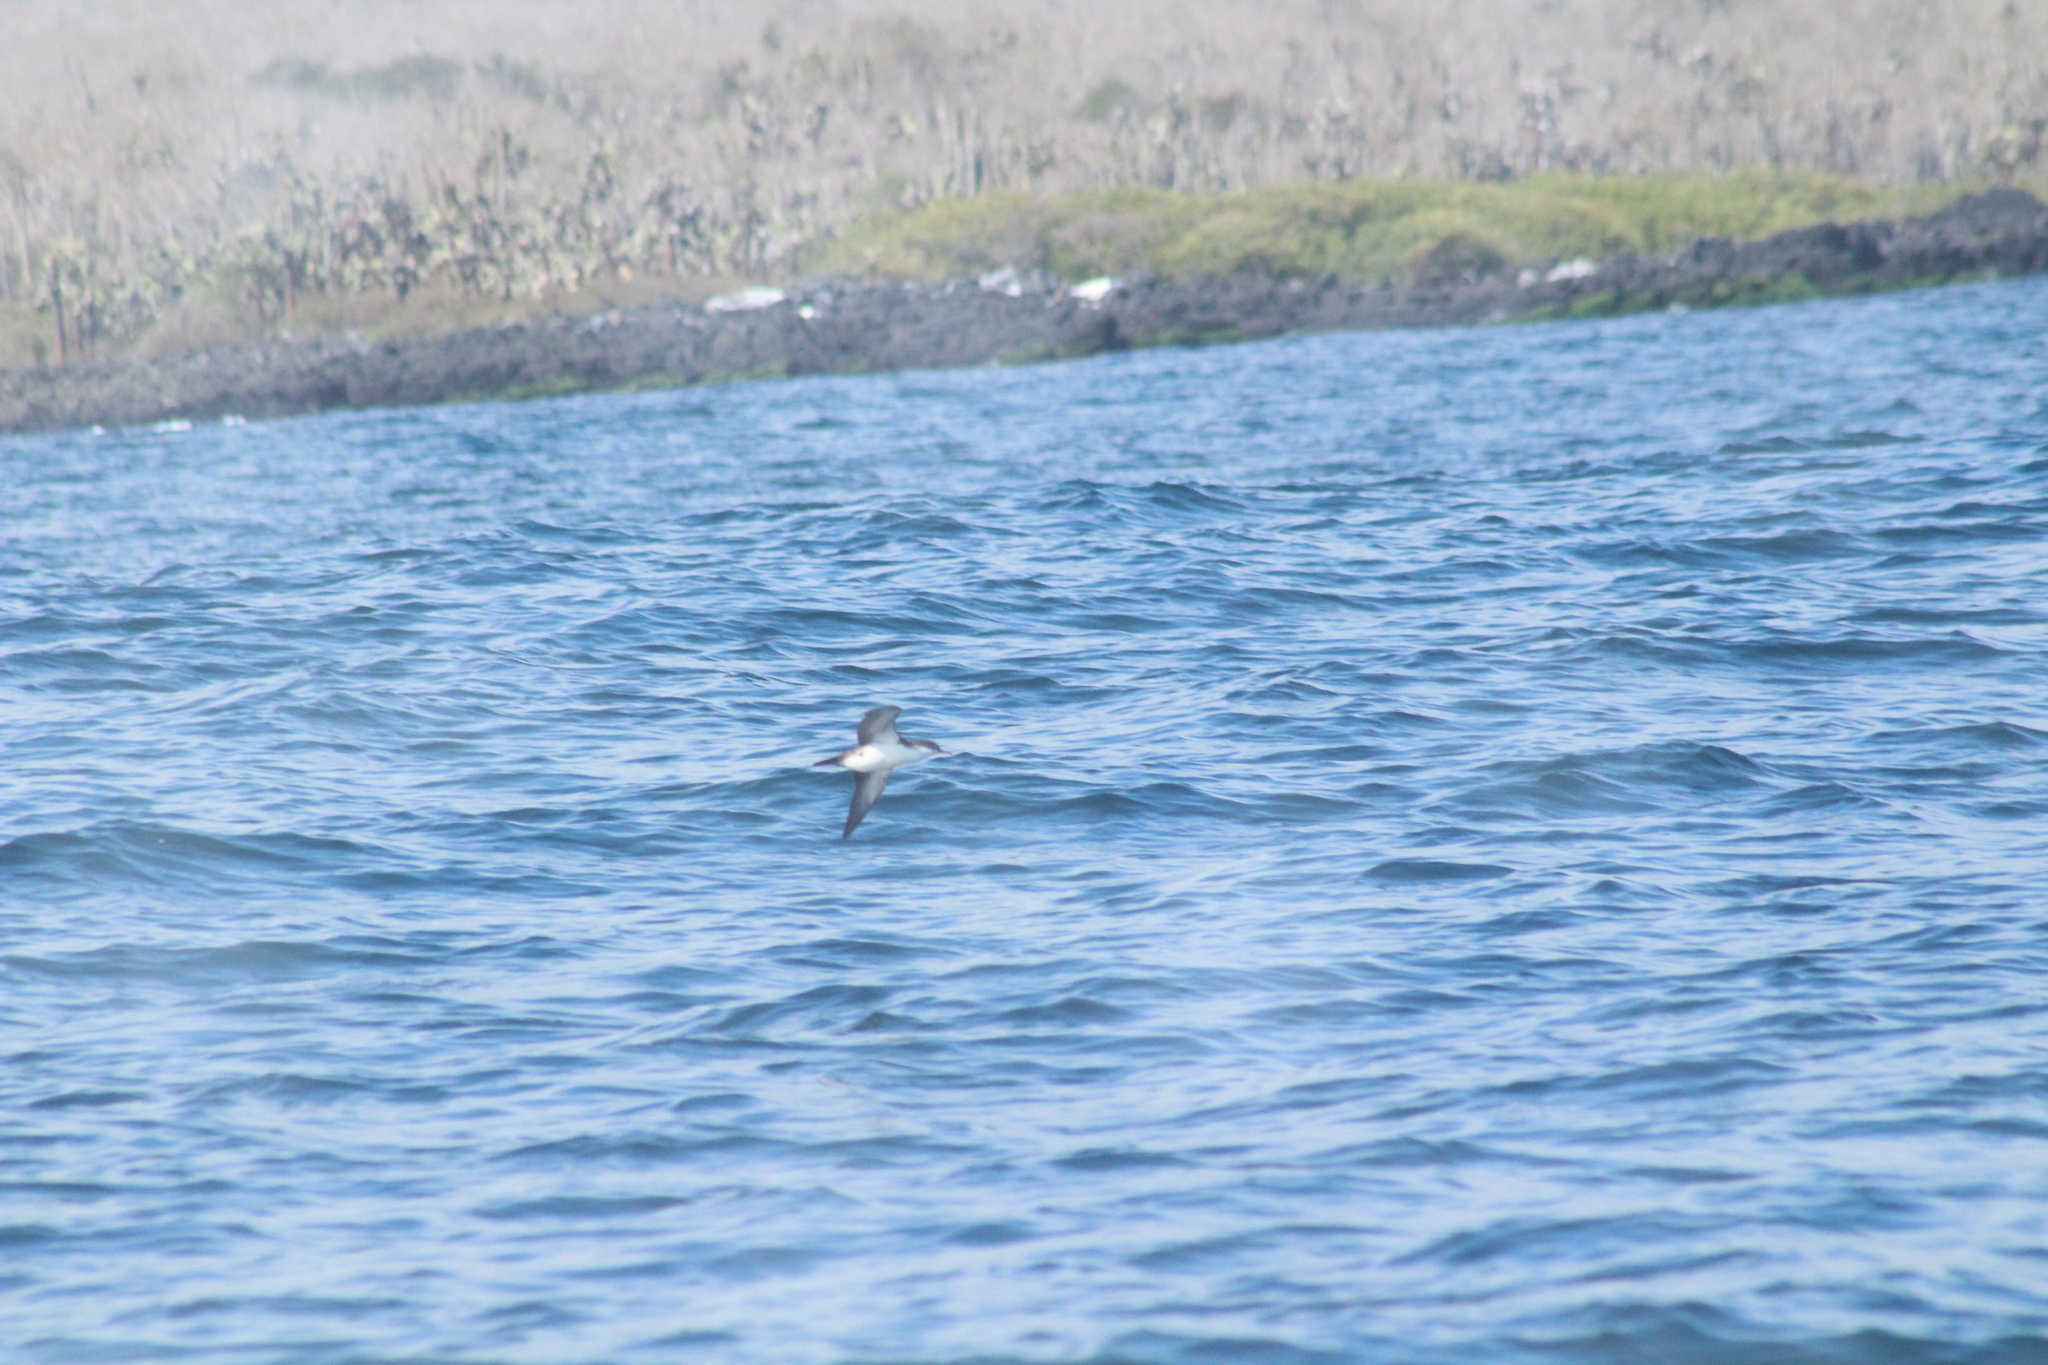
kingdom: Animalia
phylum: Chordata
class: Aves
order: Procellariiformes
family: Procellariidae
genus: Puffinus
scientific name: Puffinus subalaris
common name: Galapagos shearwater
